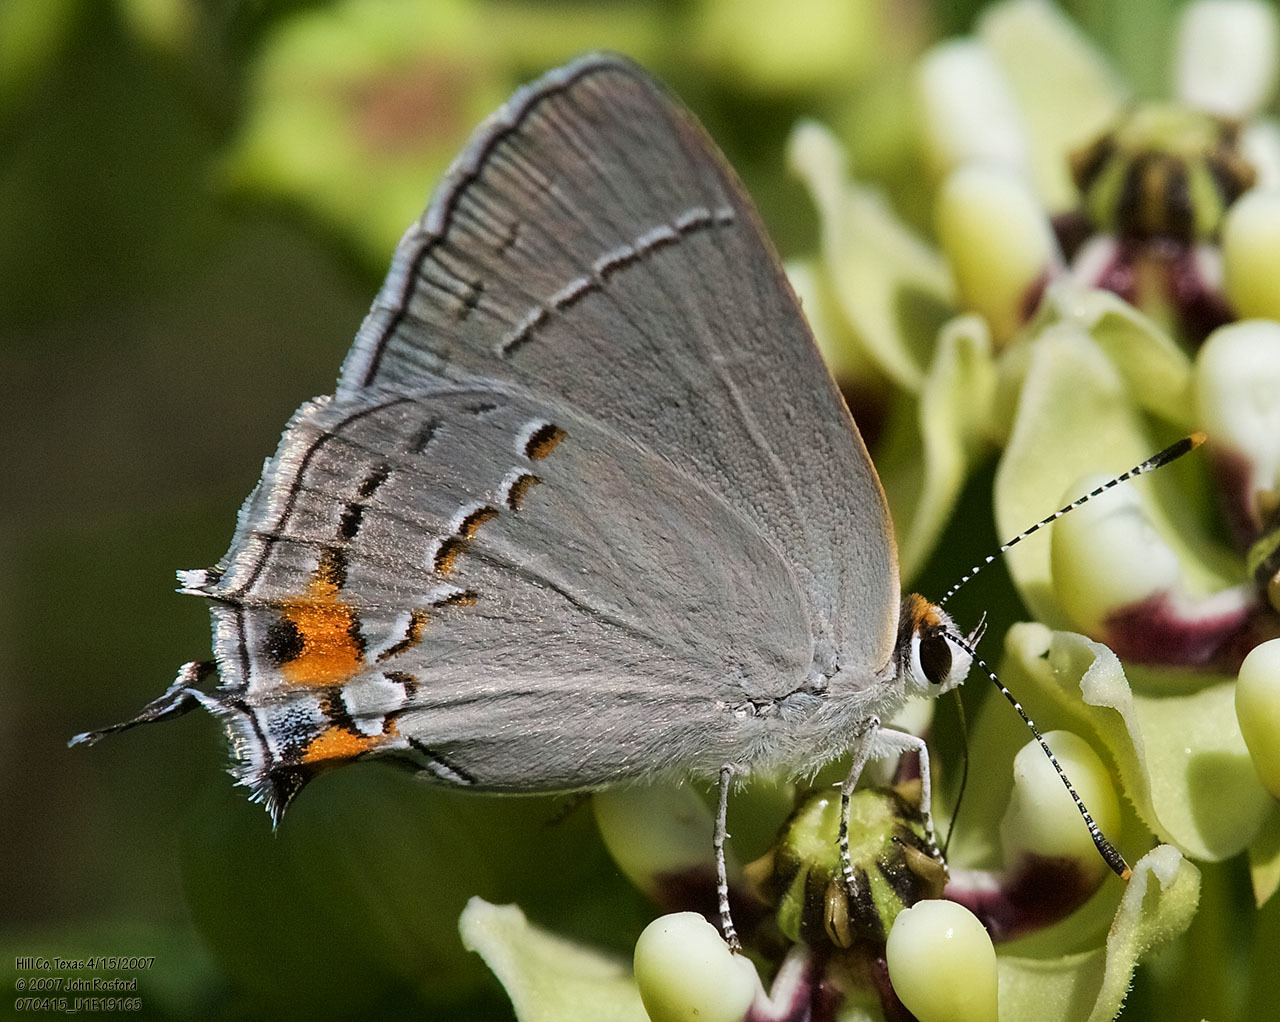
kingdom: Animalia
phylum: Arthropoda
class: Insecta
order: Lepidoptera
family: Lycaenidae
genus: Strymon
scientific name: Strymon melinus
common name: Gray hairstreak
